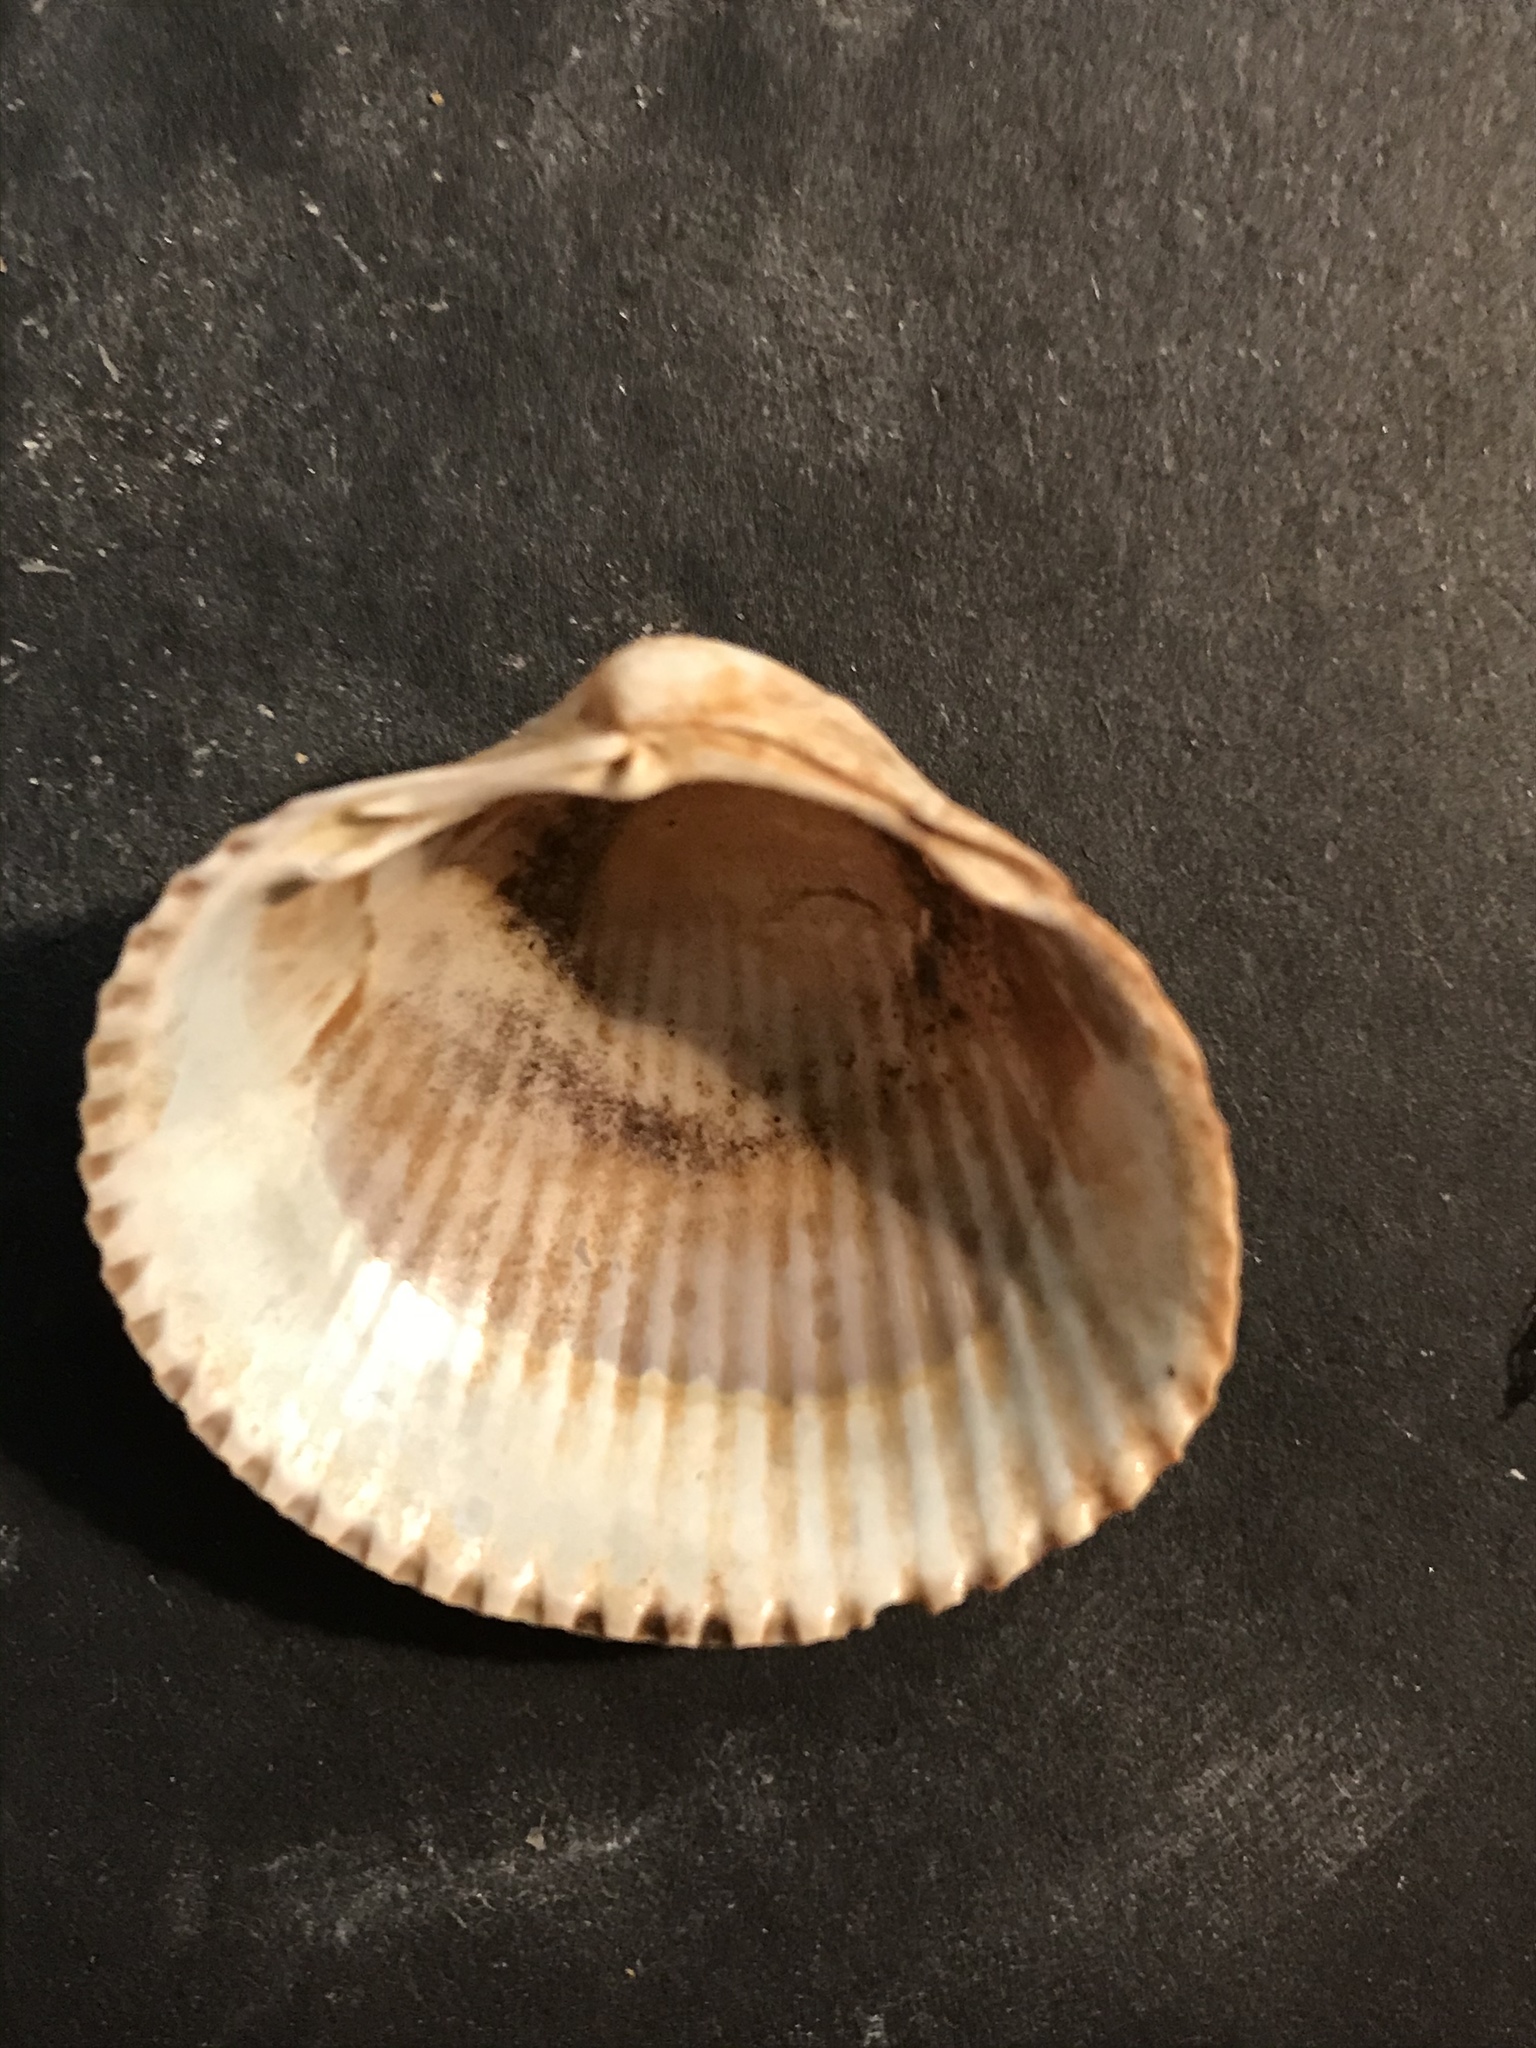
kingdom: Animalia
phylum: Mollusca
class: Bivalvia
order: Cardiida
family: Cardiidae
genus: Clinocardium
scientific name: Clinocardium nuttallii
